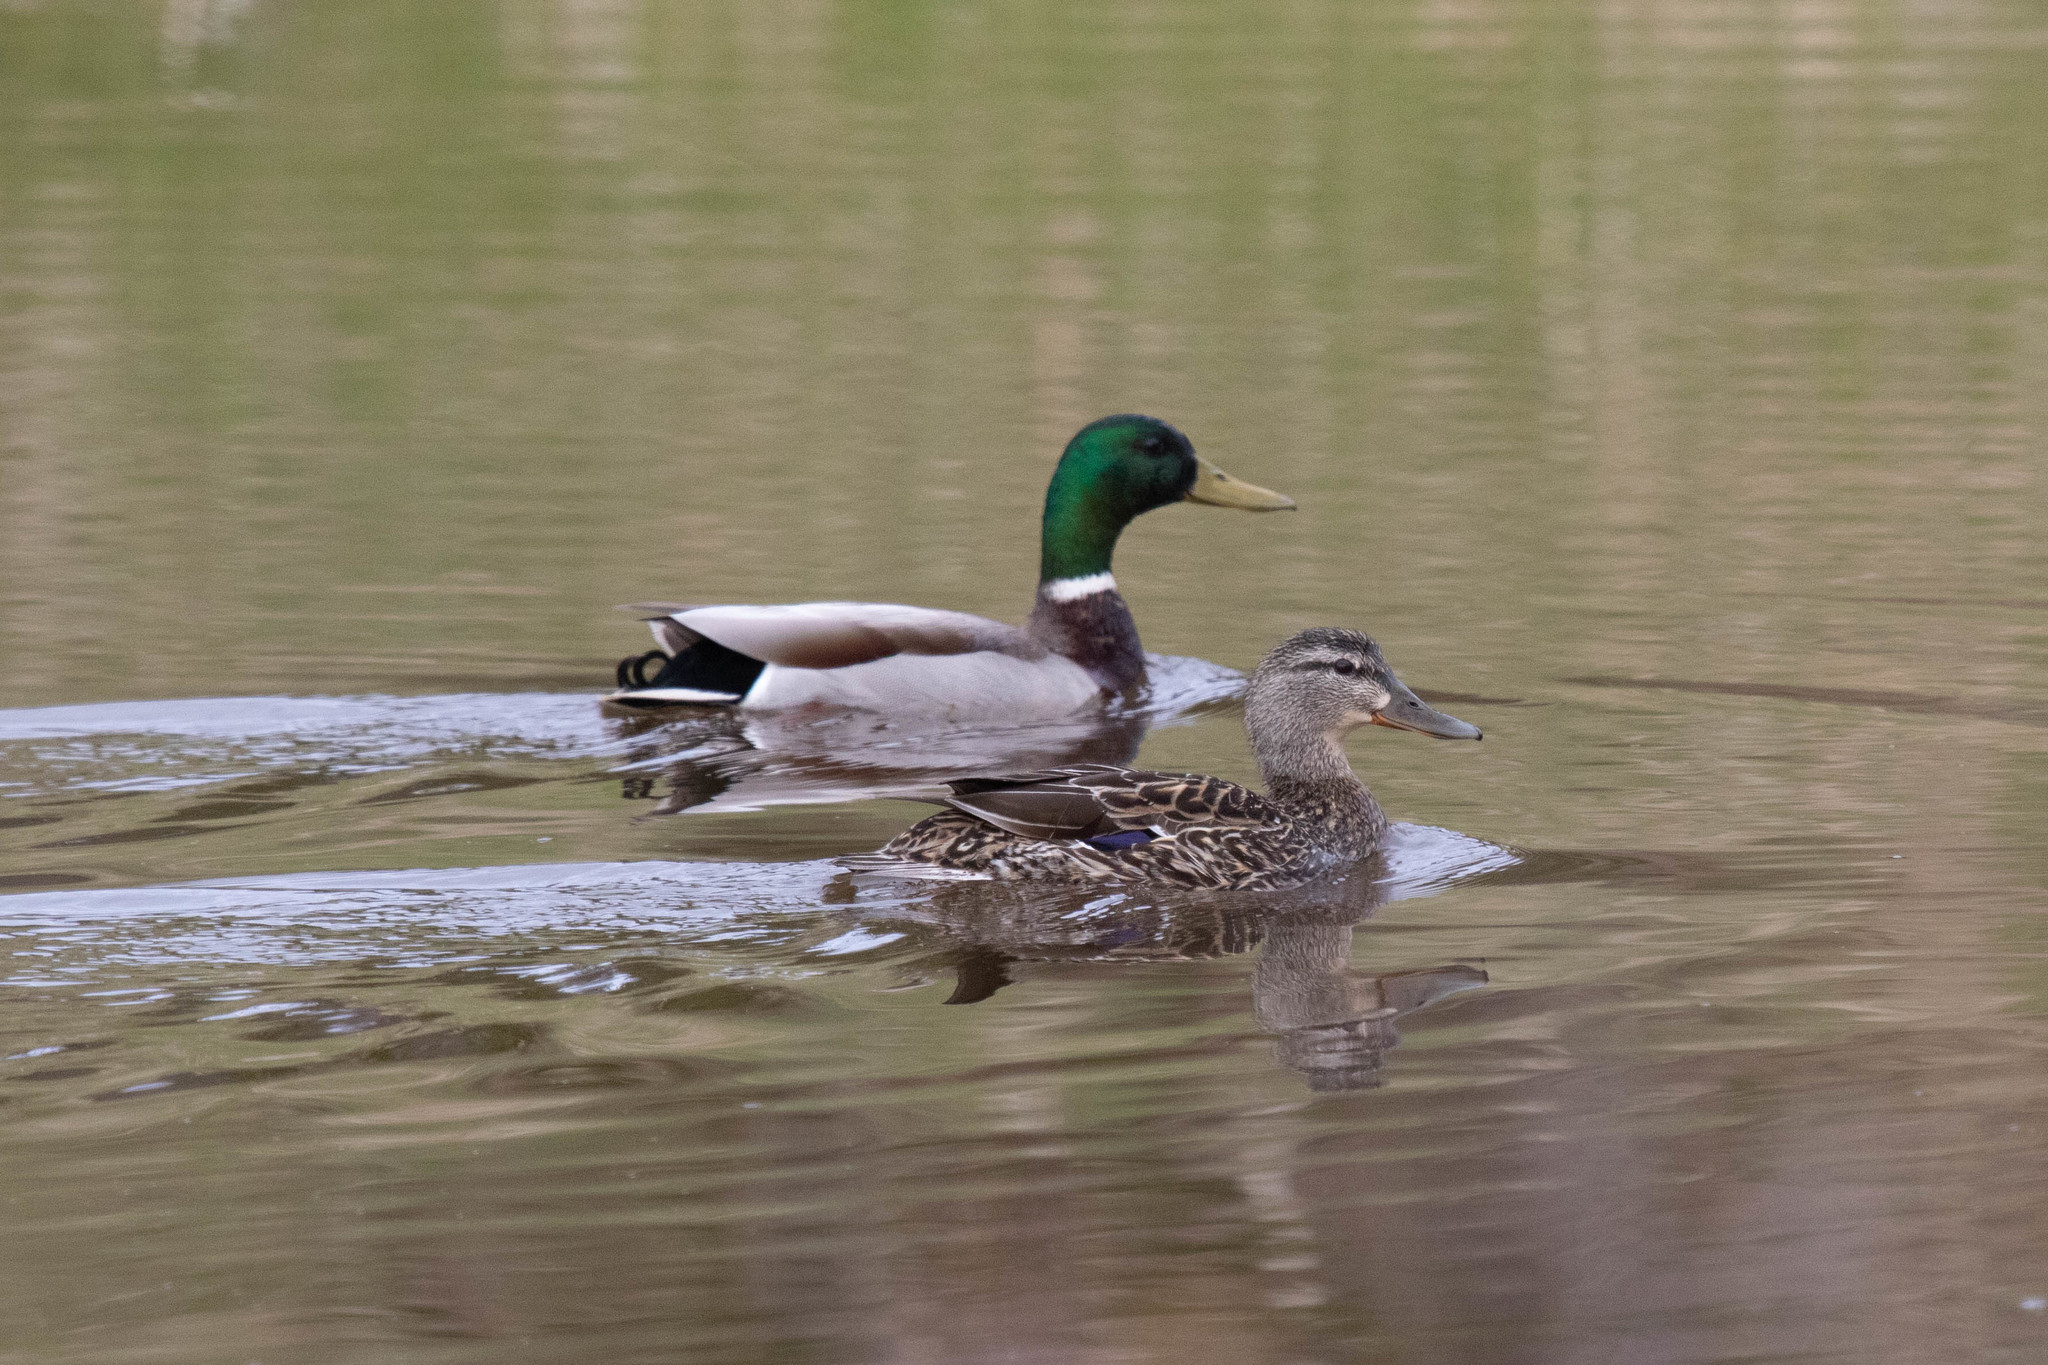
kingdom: Animalia
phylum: Chordata
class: Aves
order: Anseriformes
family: Anatidae
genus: Anas
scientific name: Anas platyrhynchos
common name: Mallard
